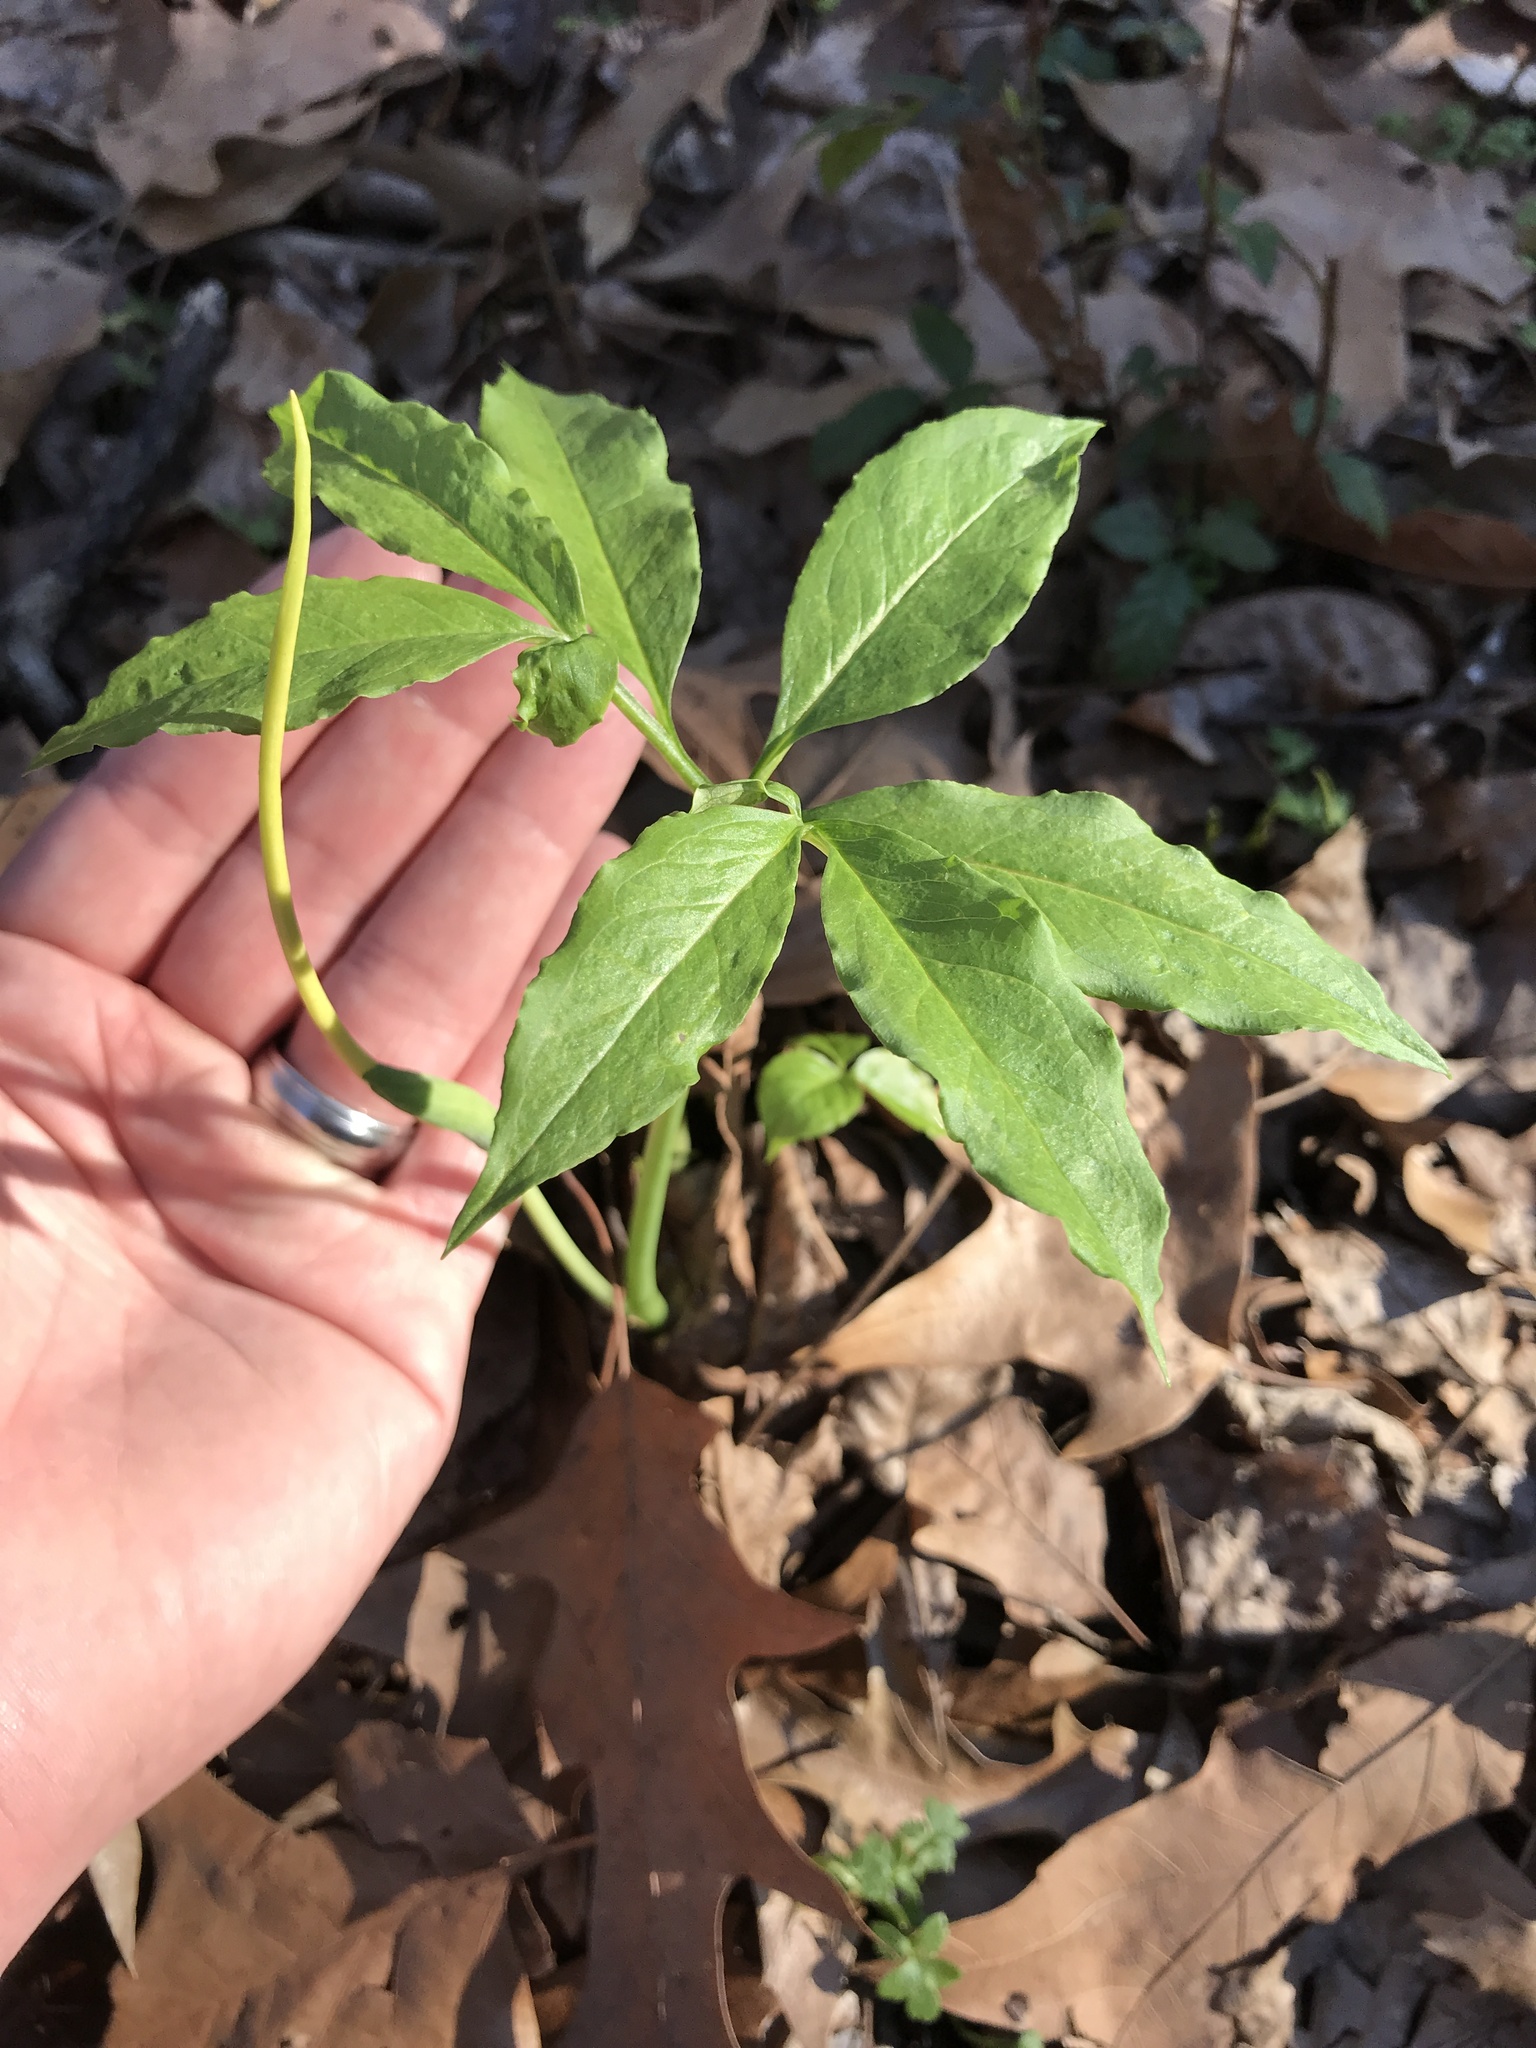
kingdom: Plantae
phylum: Tracheophyta
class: Liliopsida
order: Alismatales
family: Araceae
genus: Arisaema
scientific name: Arisaema dracontium
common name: Dragon-arum
